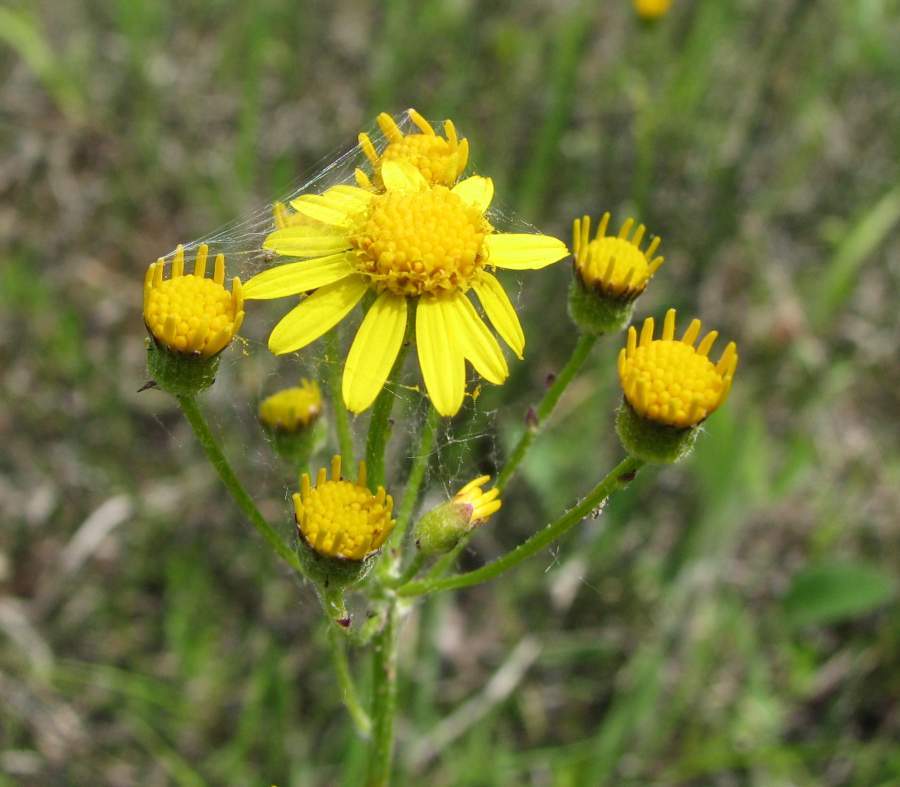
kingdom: Plantae
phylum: Tracheophyta
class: Magnoliopsida
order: Asterales
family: Asteraceae
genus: Packera
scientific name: Packera paupercula
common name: Balsam groundsel
